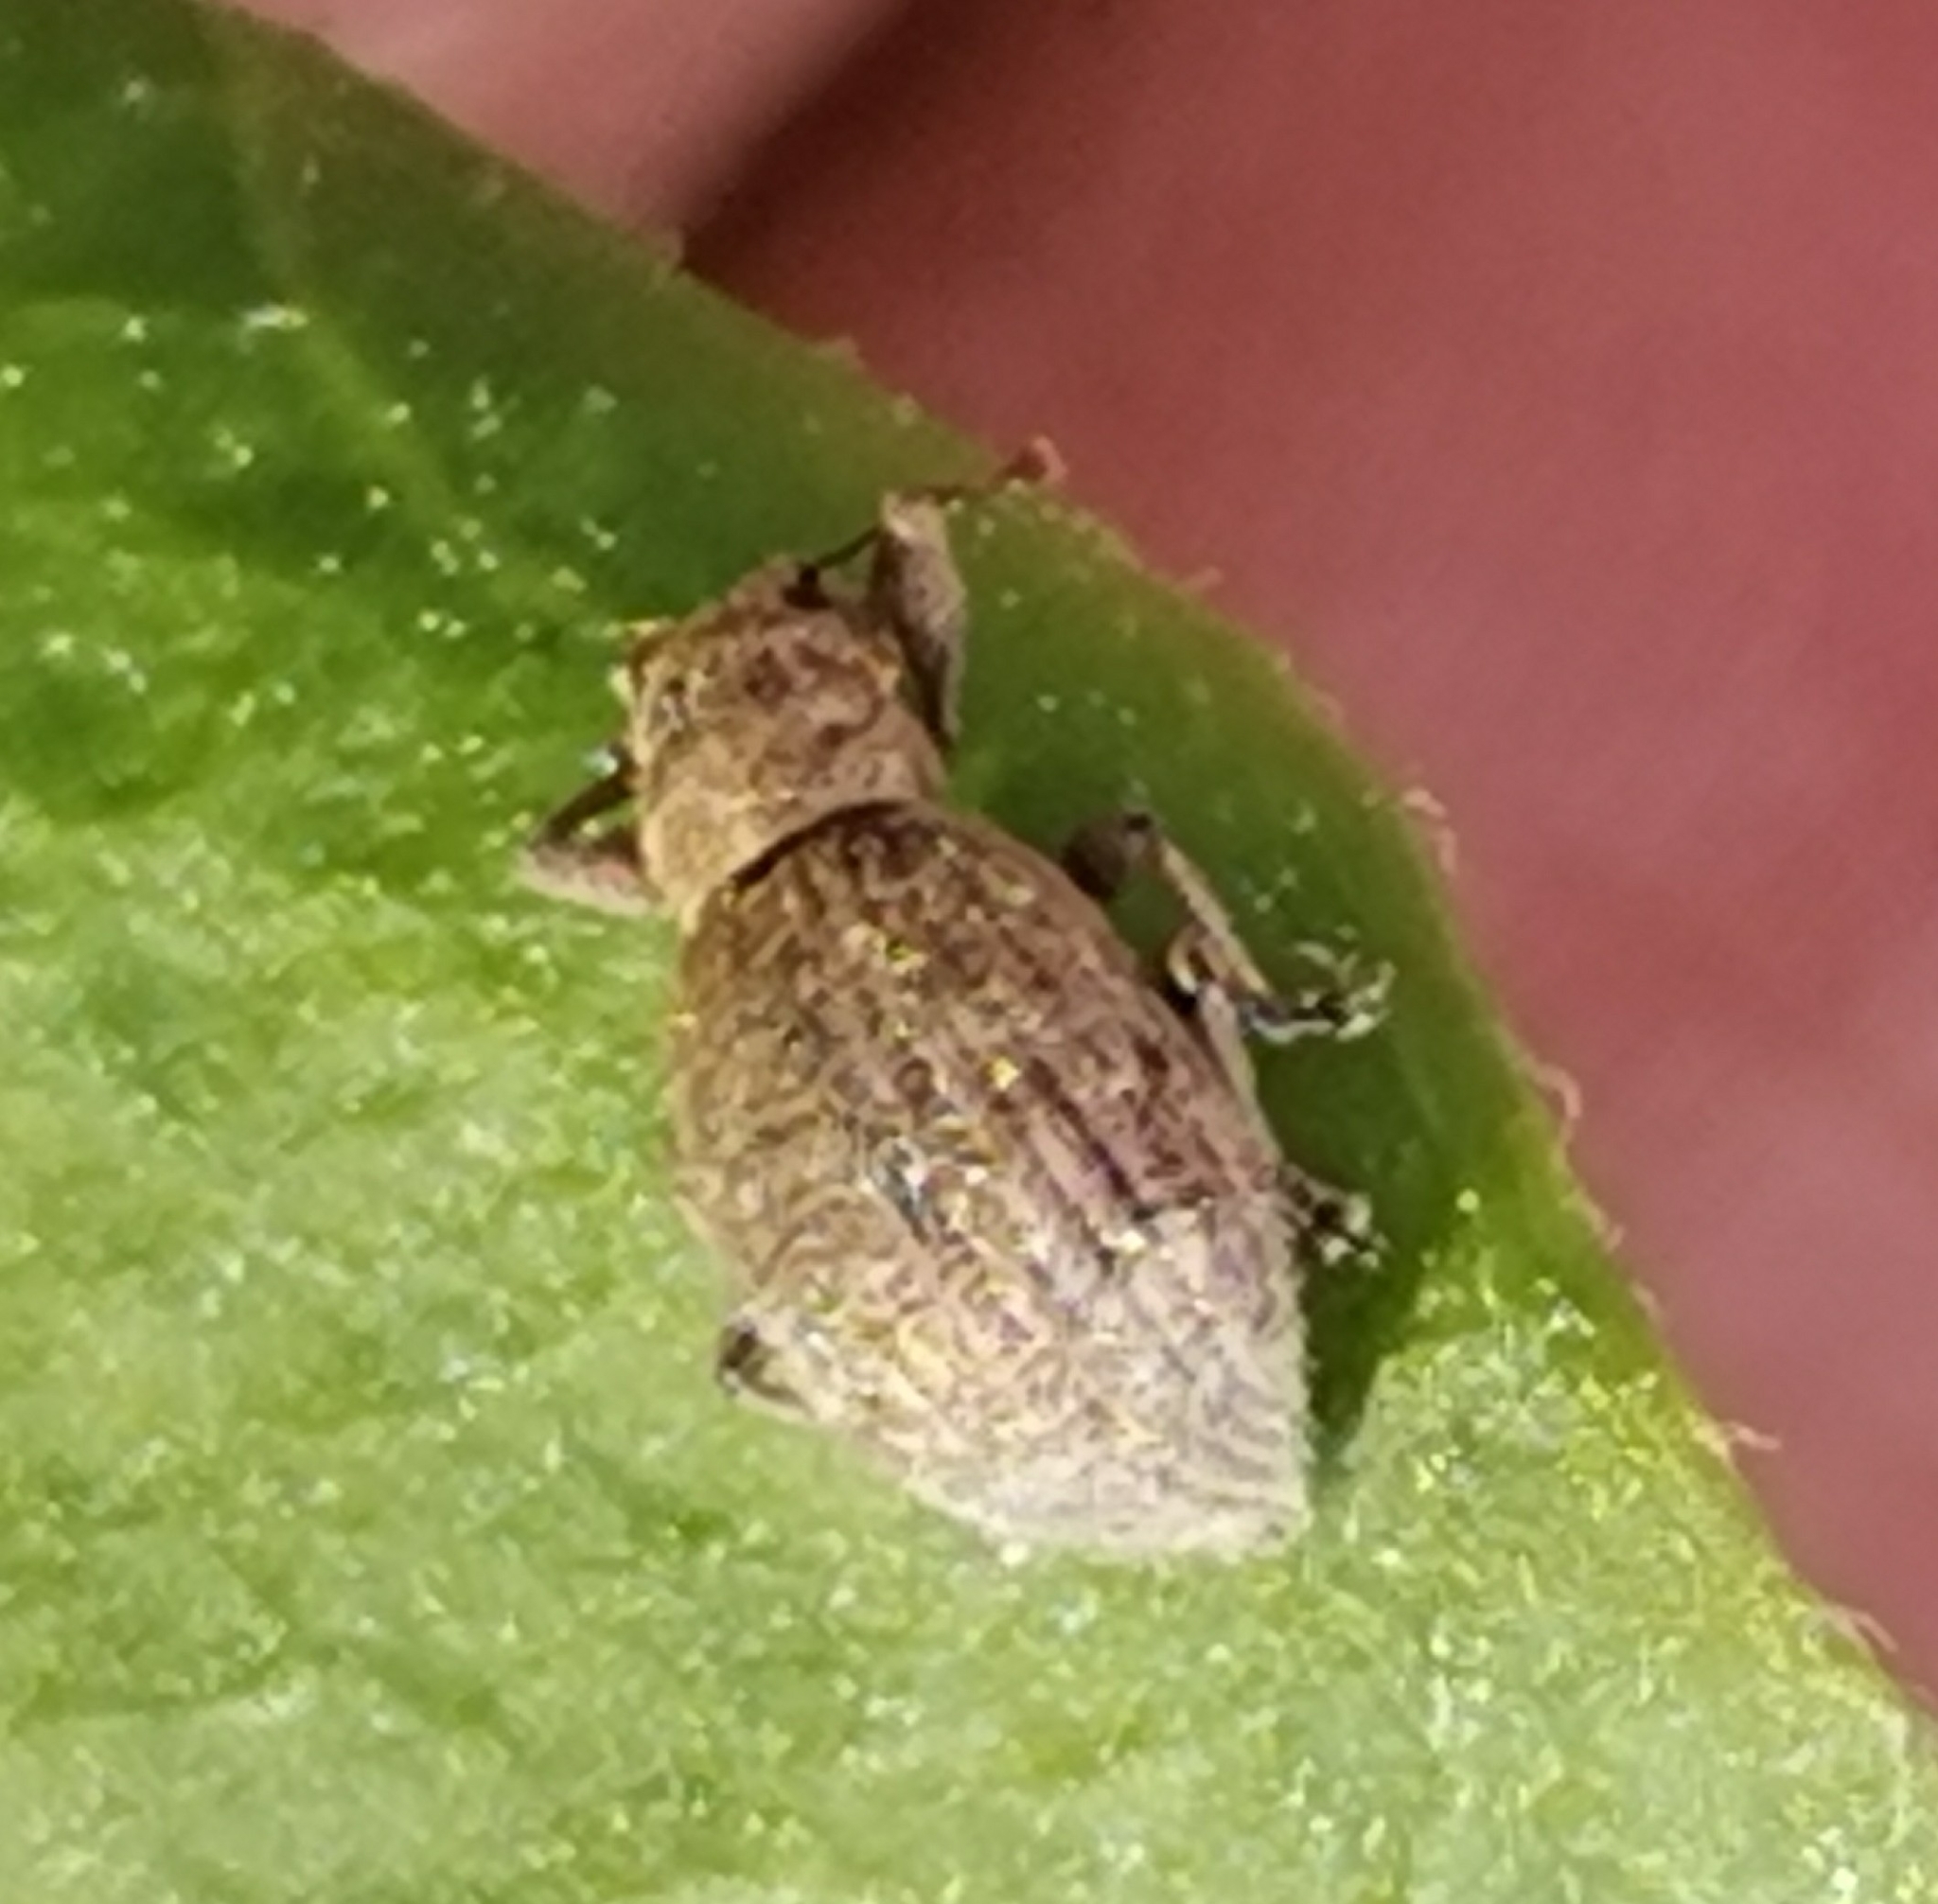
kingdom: Animalia
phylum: Arthropoda
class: Insecta
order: Coleoptera
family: Curculionidae
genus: Sciaphilus
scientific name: Sciaphilus asperatus
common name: Weevil
